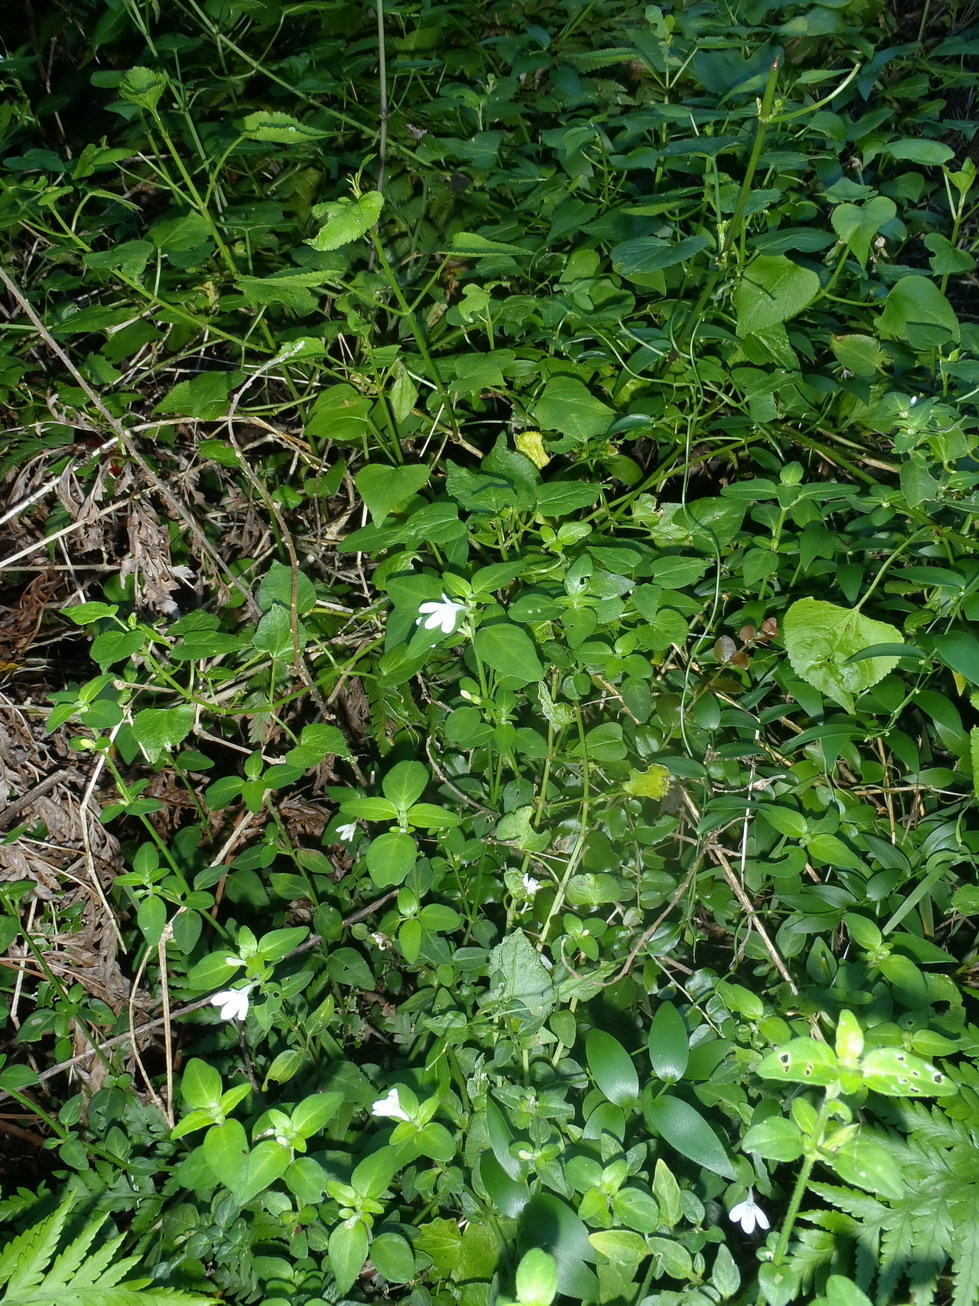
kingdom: Plantae
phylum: Tracheophyta
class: Magnoliopsida
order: Lamiales
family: Acanthaceae
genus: Justicia
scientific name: Justicia tubulosa
